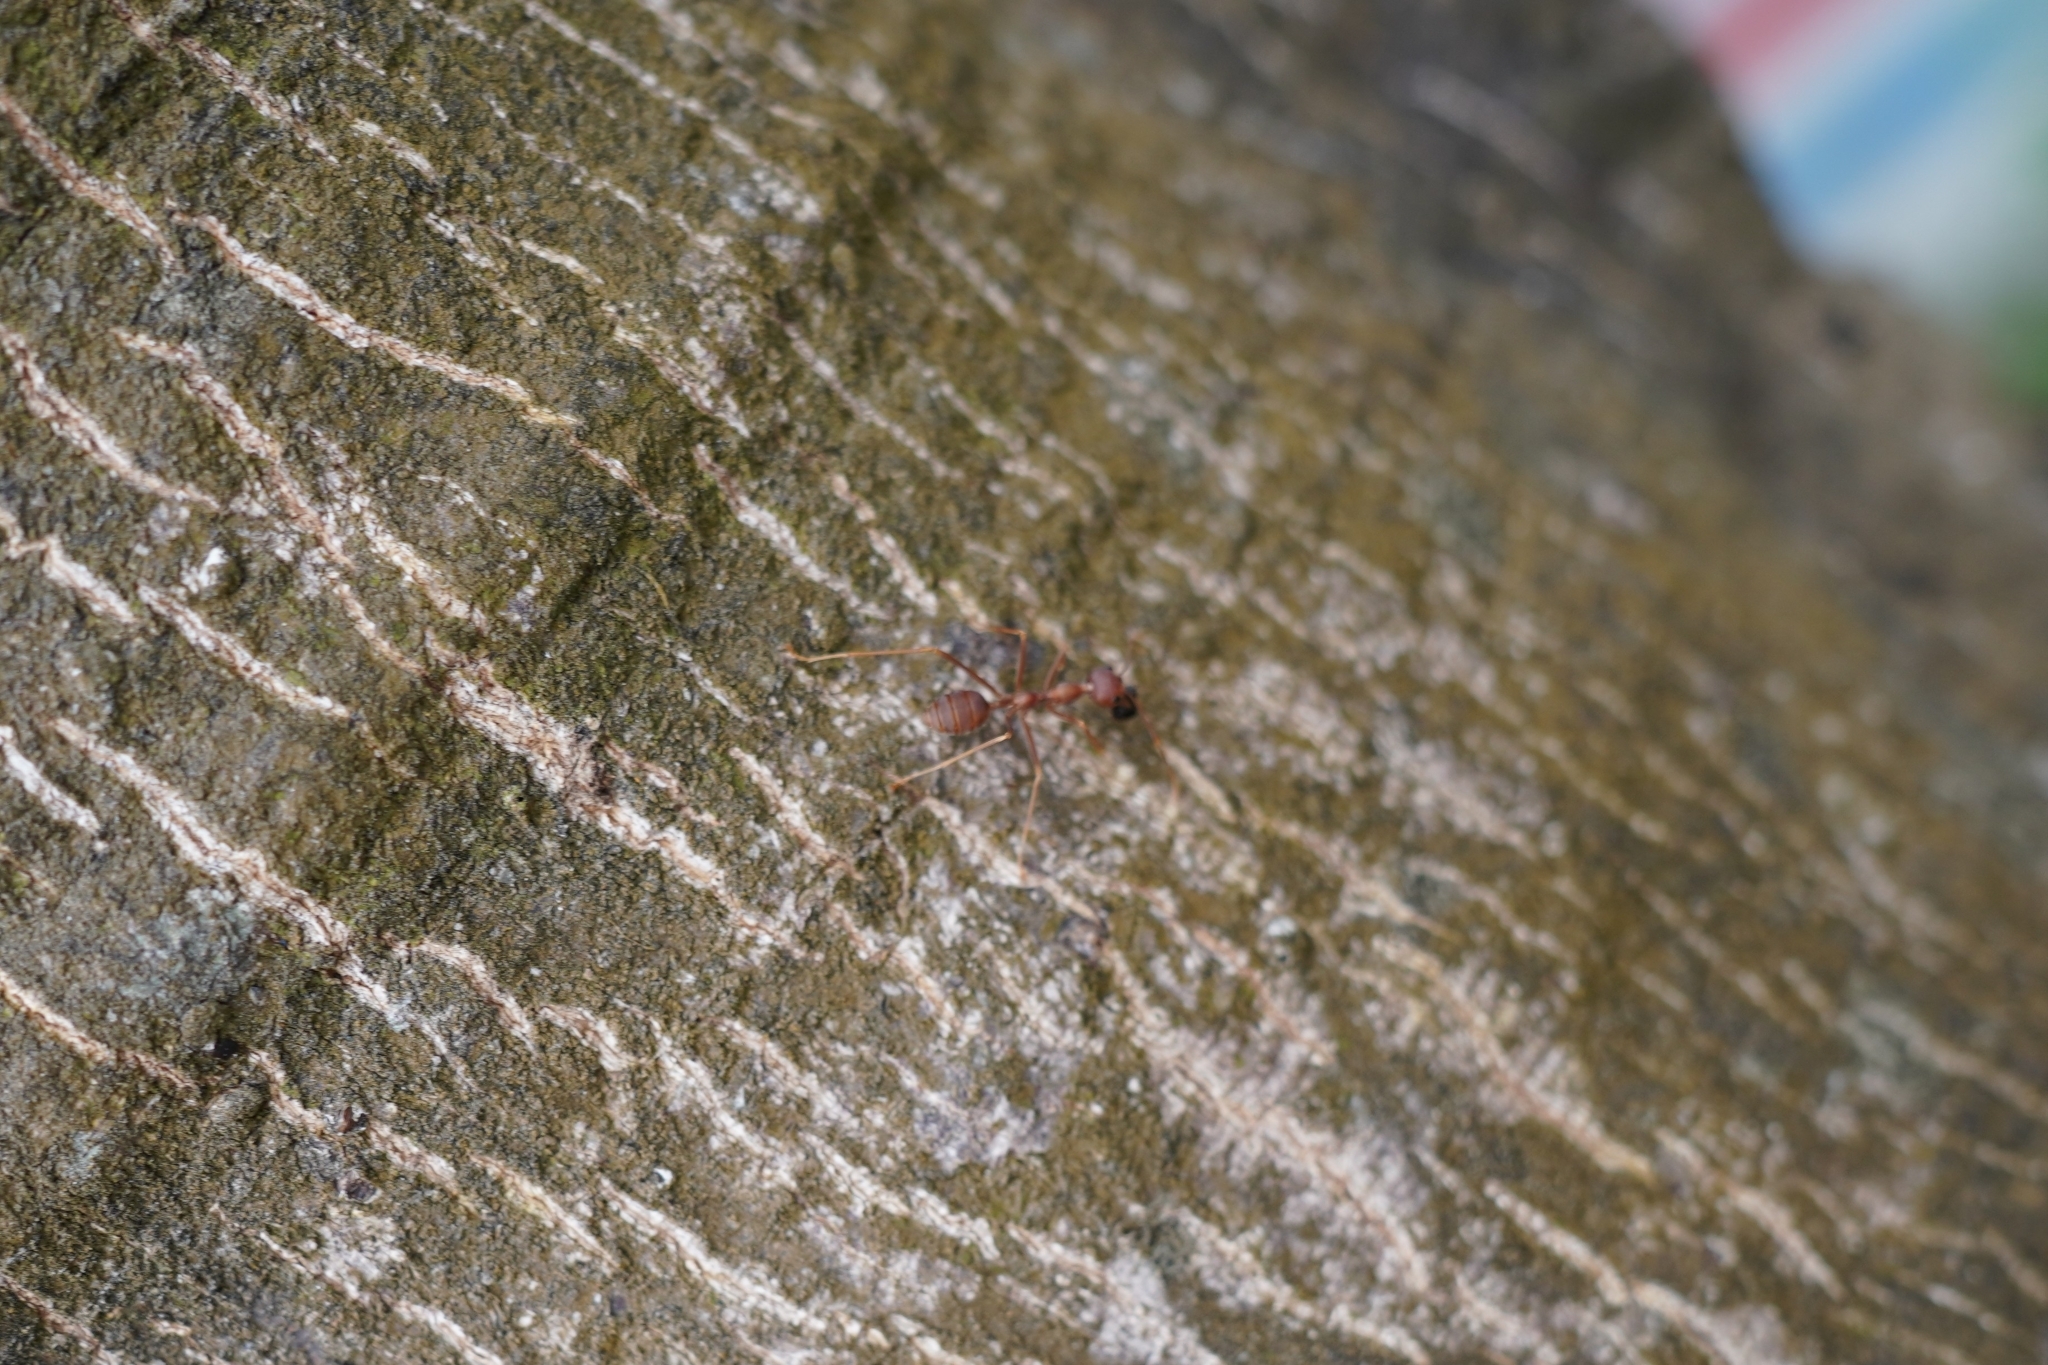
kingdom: Animalia
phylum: Arthropoda
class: Insecta
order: Hymenoptera
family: Formicidae
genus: Oecophylla
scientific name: Oecophylla smaragdina
